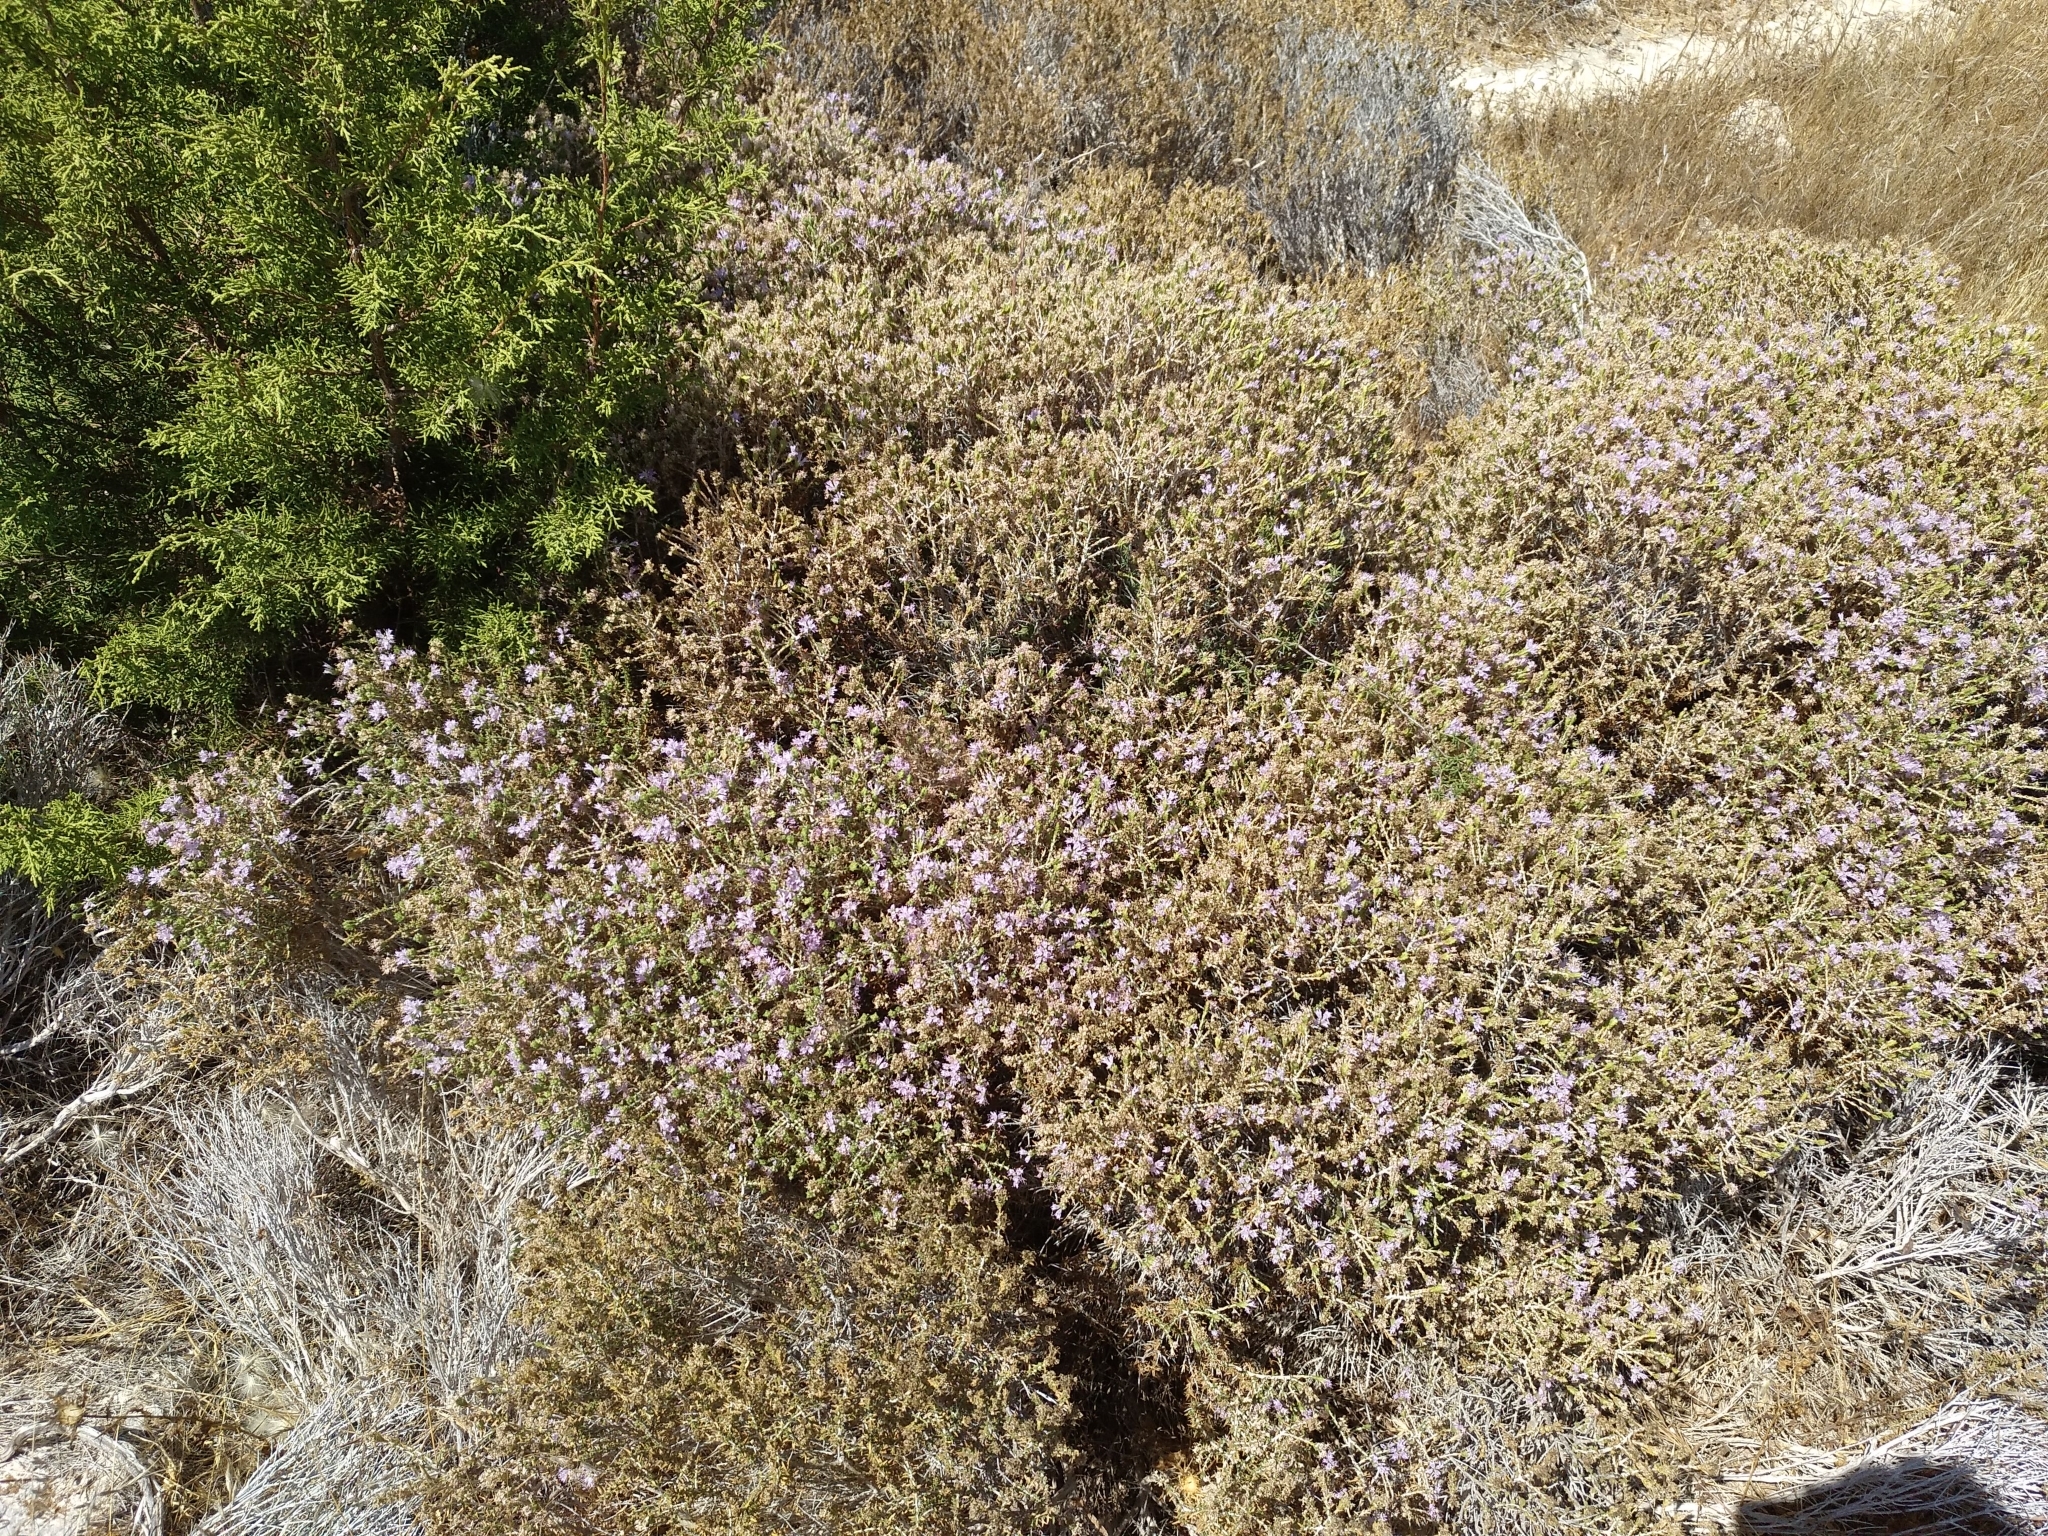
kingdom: Plantae
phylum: Tracheophyta
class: Magnoliopsida
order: Lamiales
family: Lamiaceae
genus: Thymbra
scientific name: Thymbra capitata
